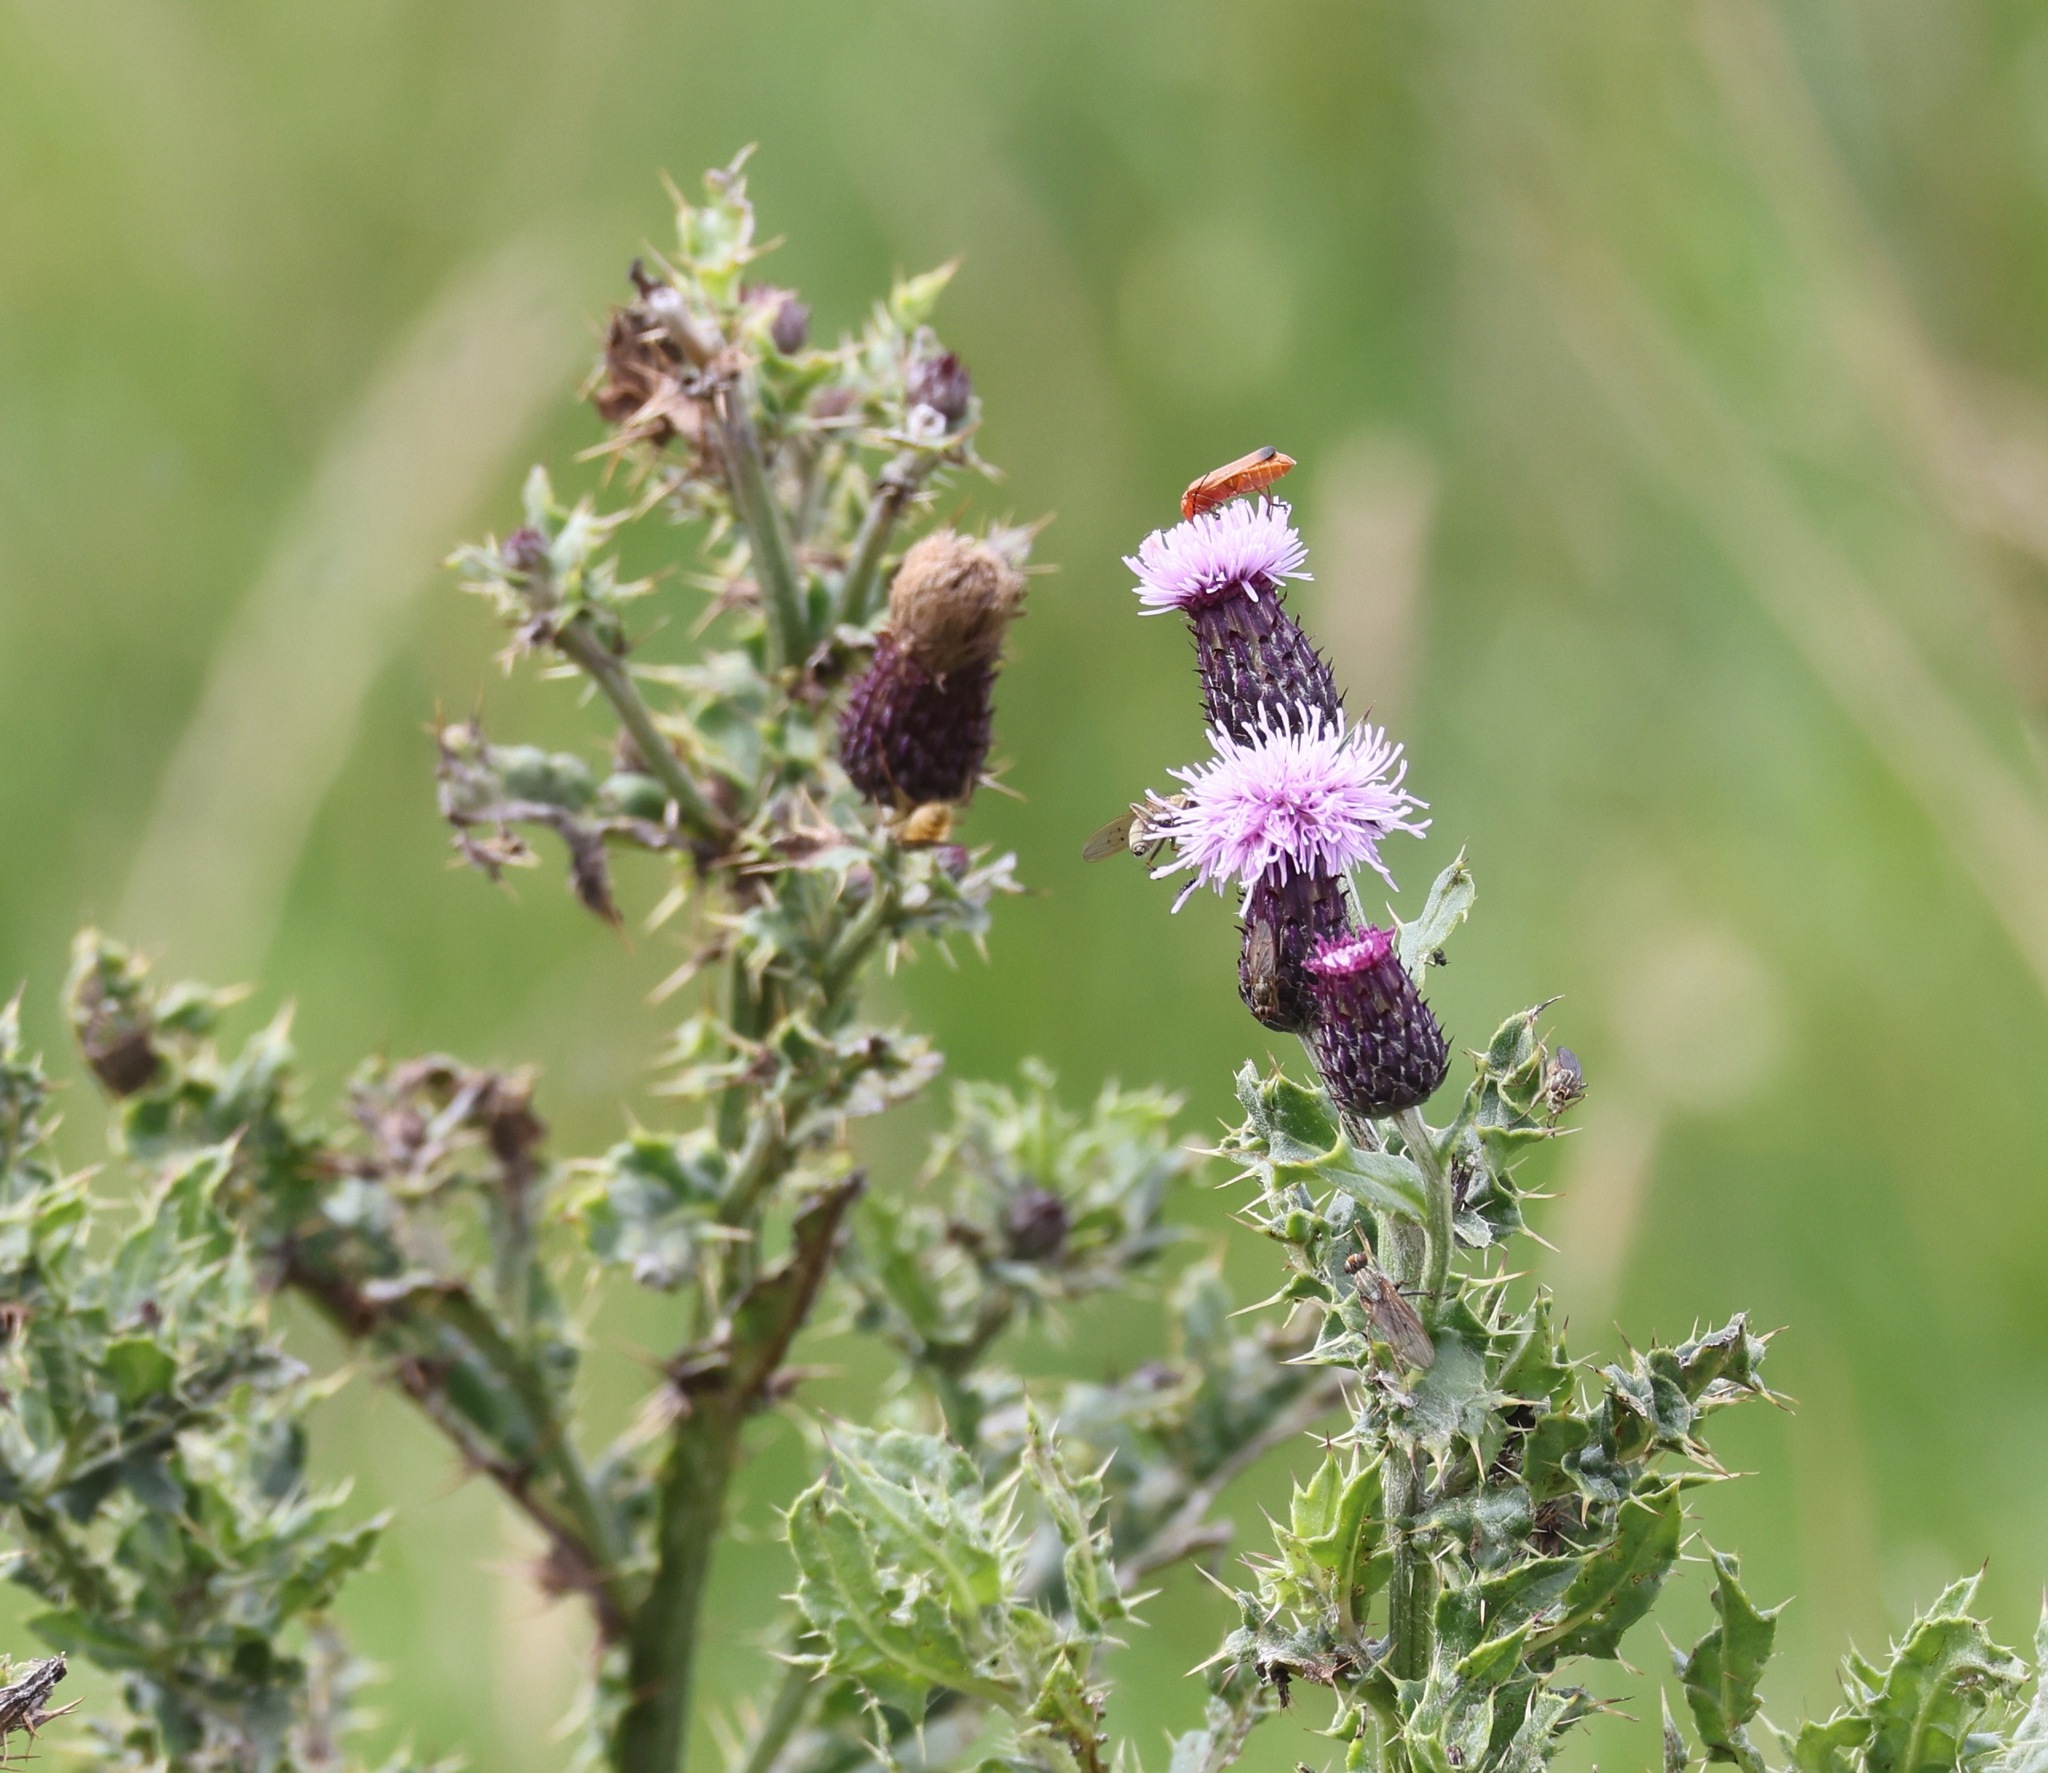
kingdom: Plantae
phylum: Tracheophyta
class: Magnoliopsida
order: Asterales
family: Asteraceae
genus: Cirsium
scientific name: Cirsium arvense
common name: Creeping thistle
